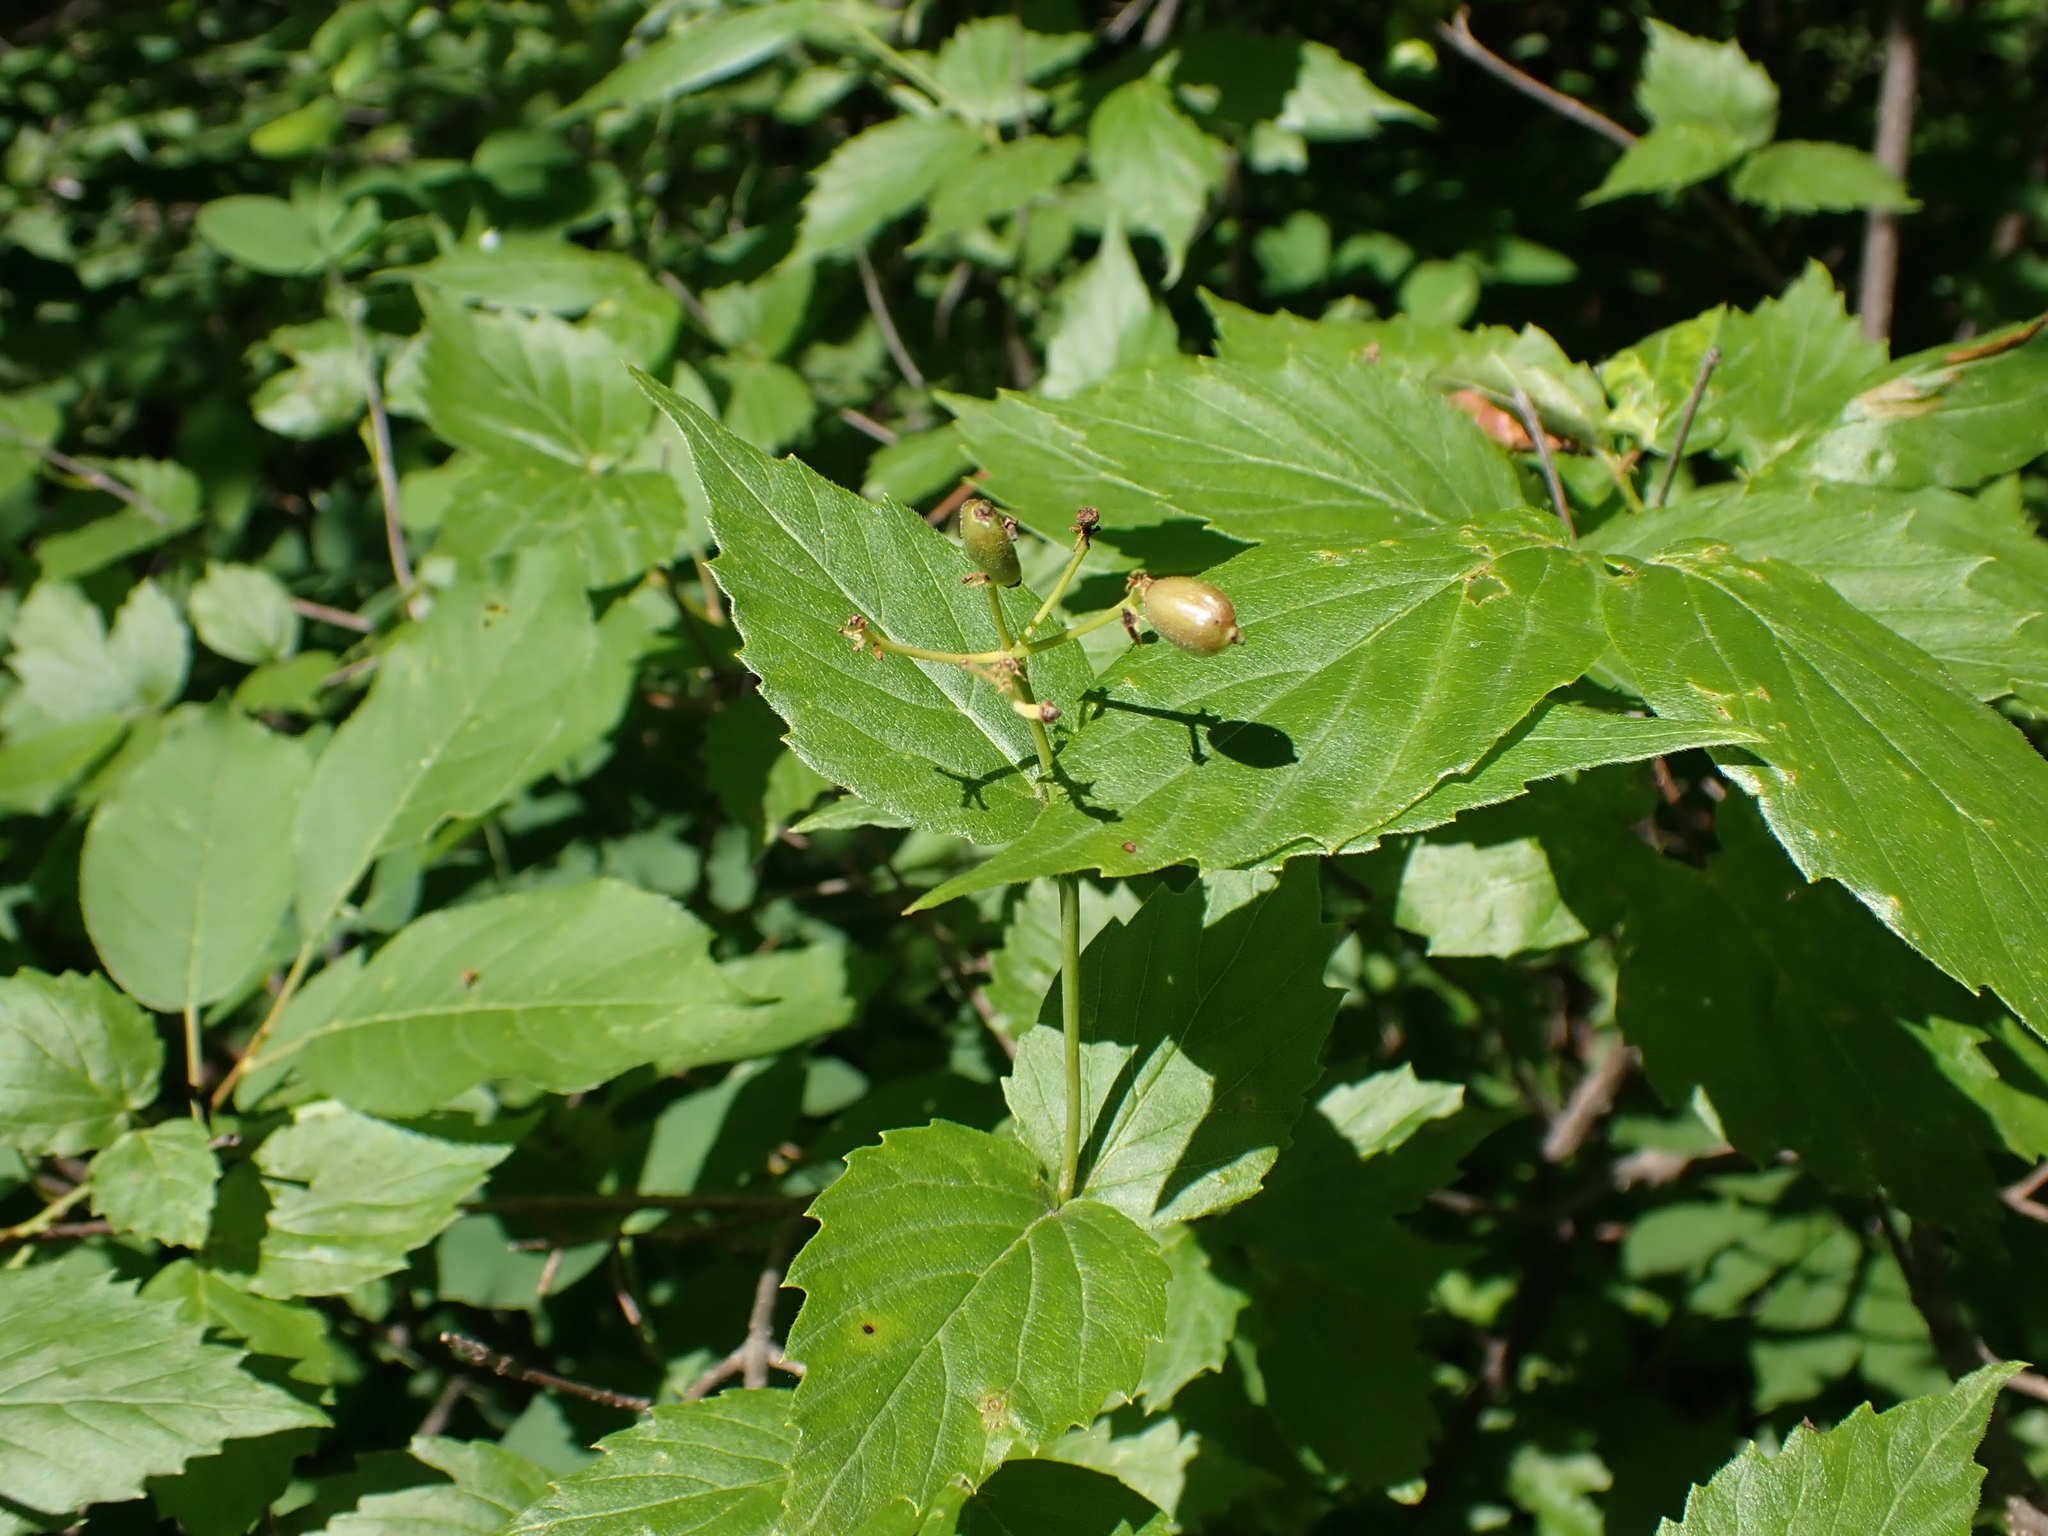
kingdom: Plantae
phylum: Tracheophyta
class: Magnoliopsida
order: Dipsacales
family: Viburnaceae
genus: Viburnum
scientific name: Viburnum rafinesqueanum
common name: Downy arrow-wood
